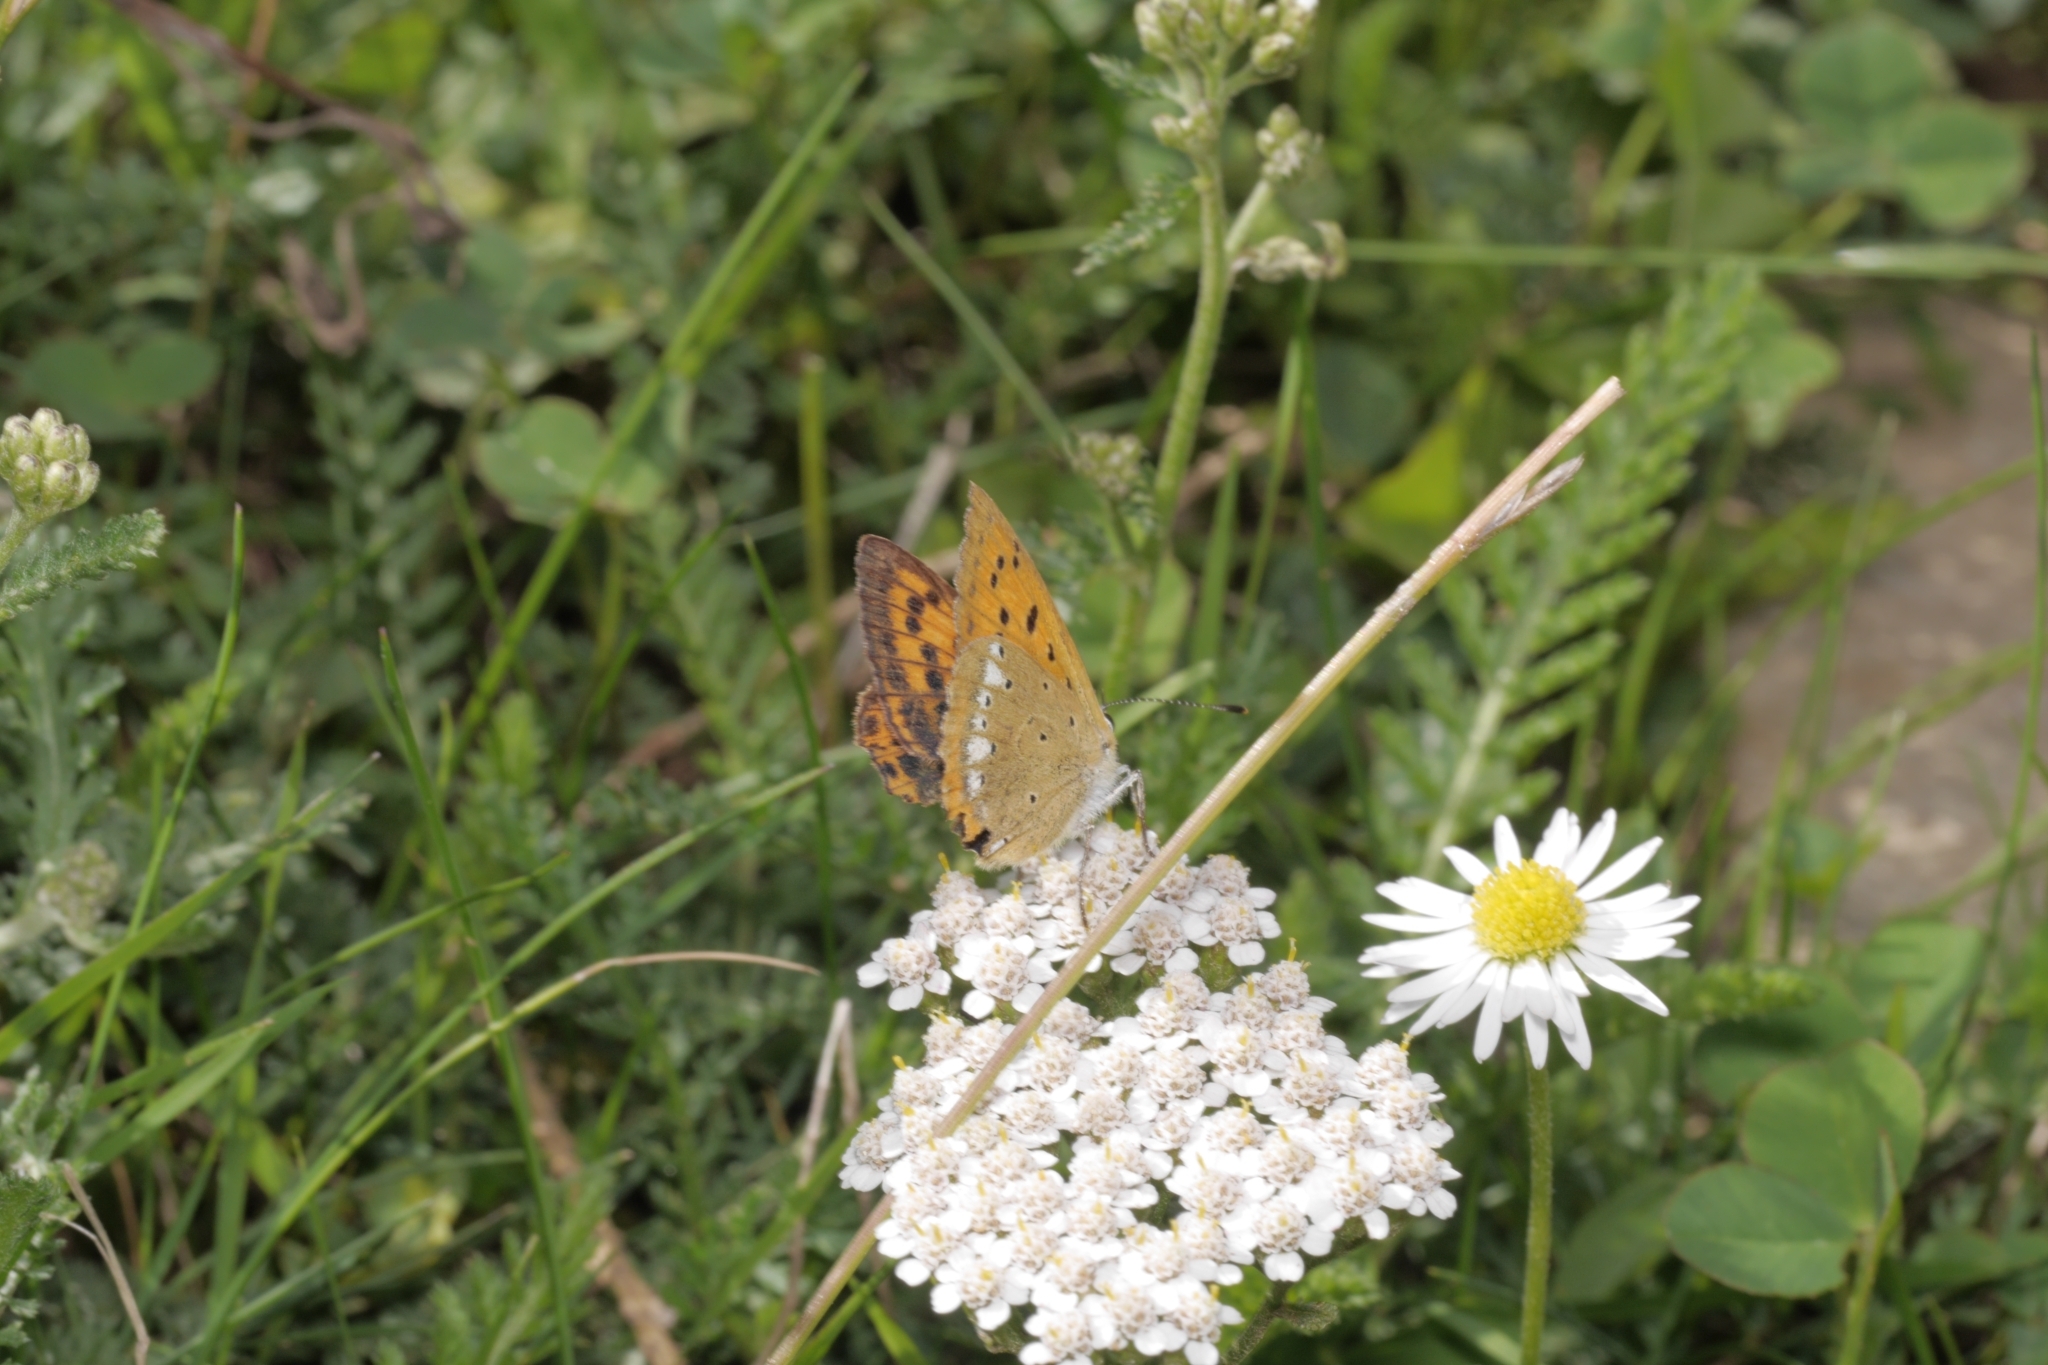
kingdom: Animalia
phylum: Arthropoda
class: Insecta
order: Lepidoptera
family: Lycaenidae
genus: Lycaena
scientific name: Lycaena virgaureae
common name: Scarce copper
